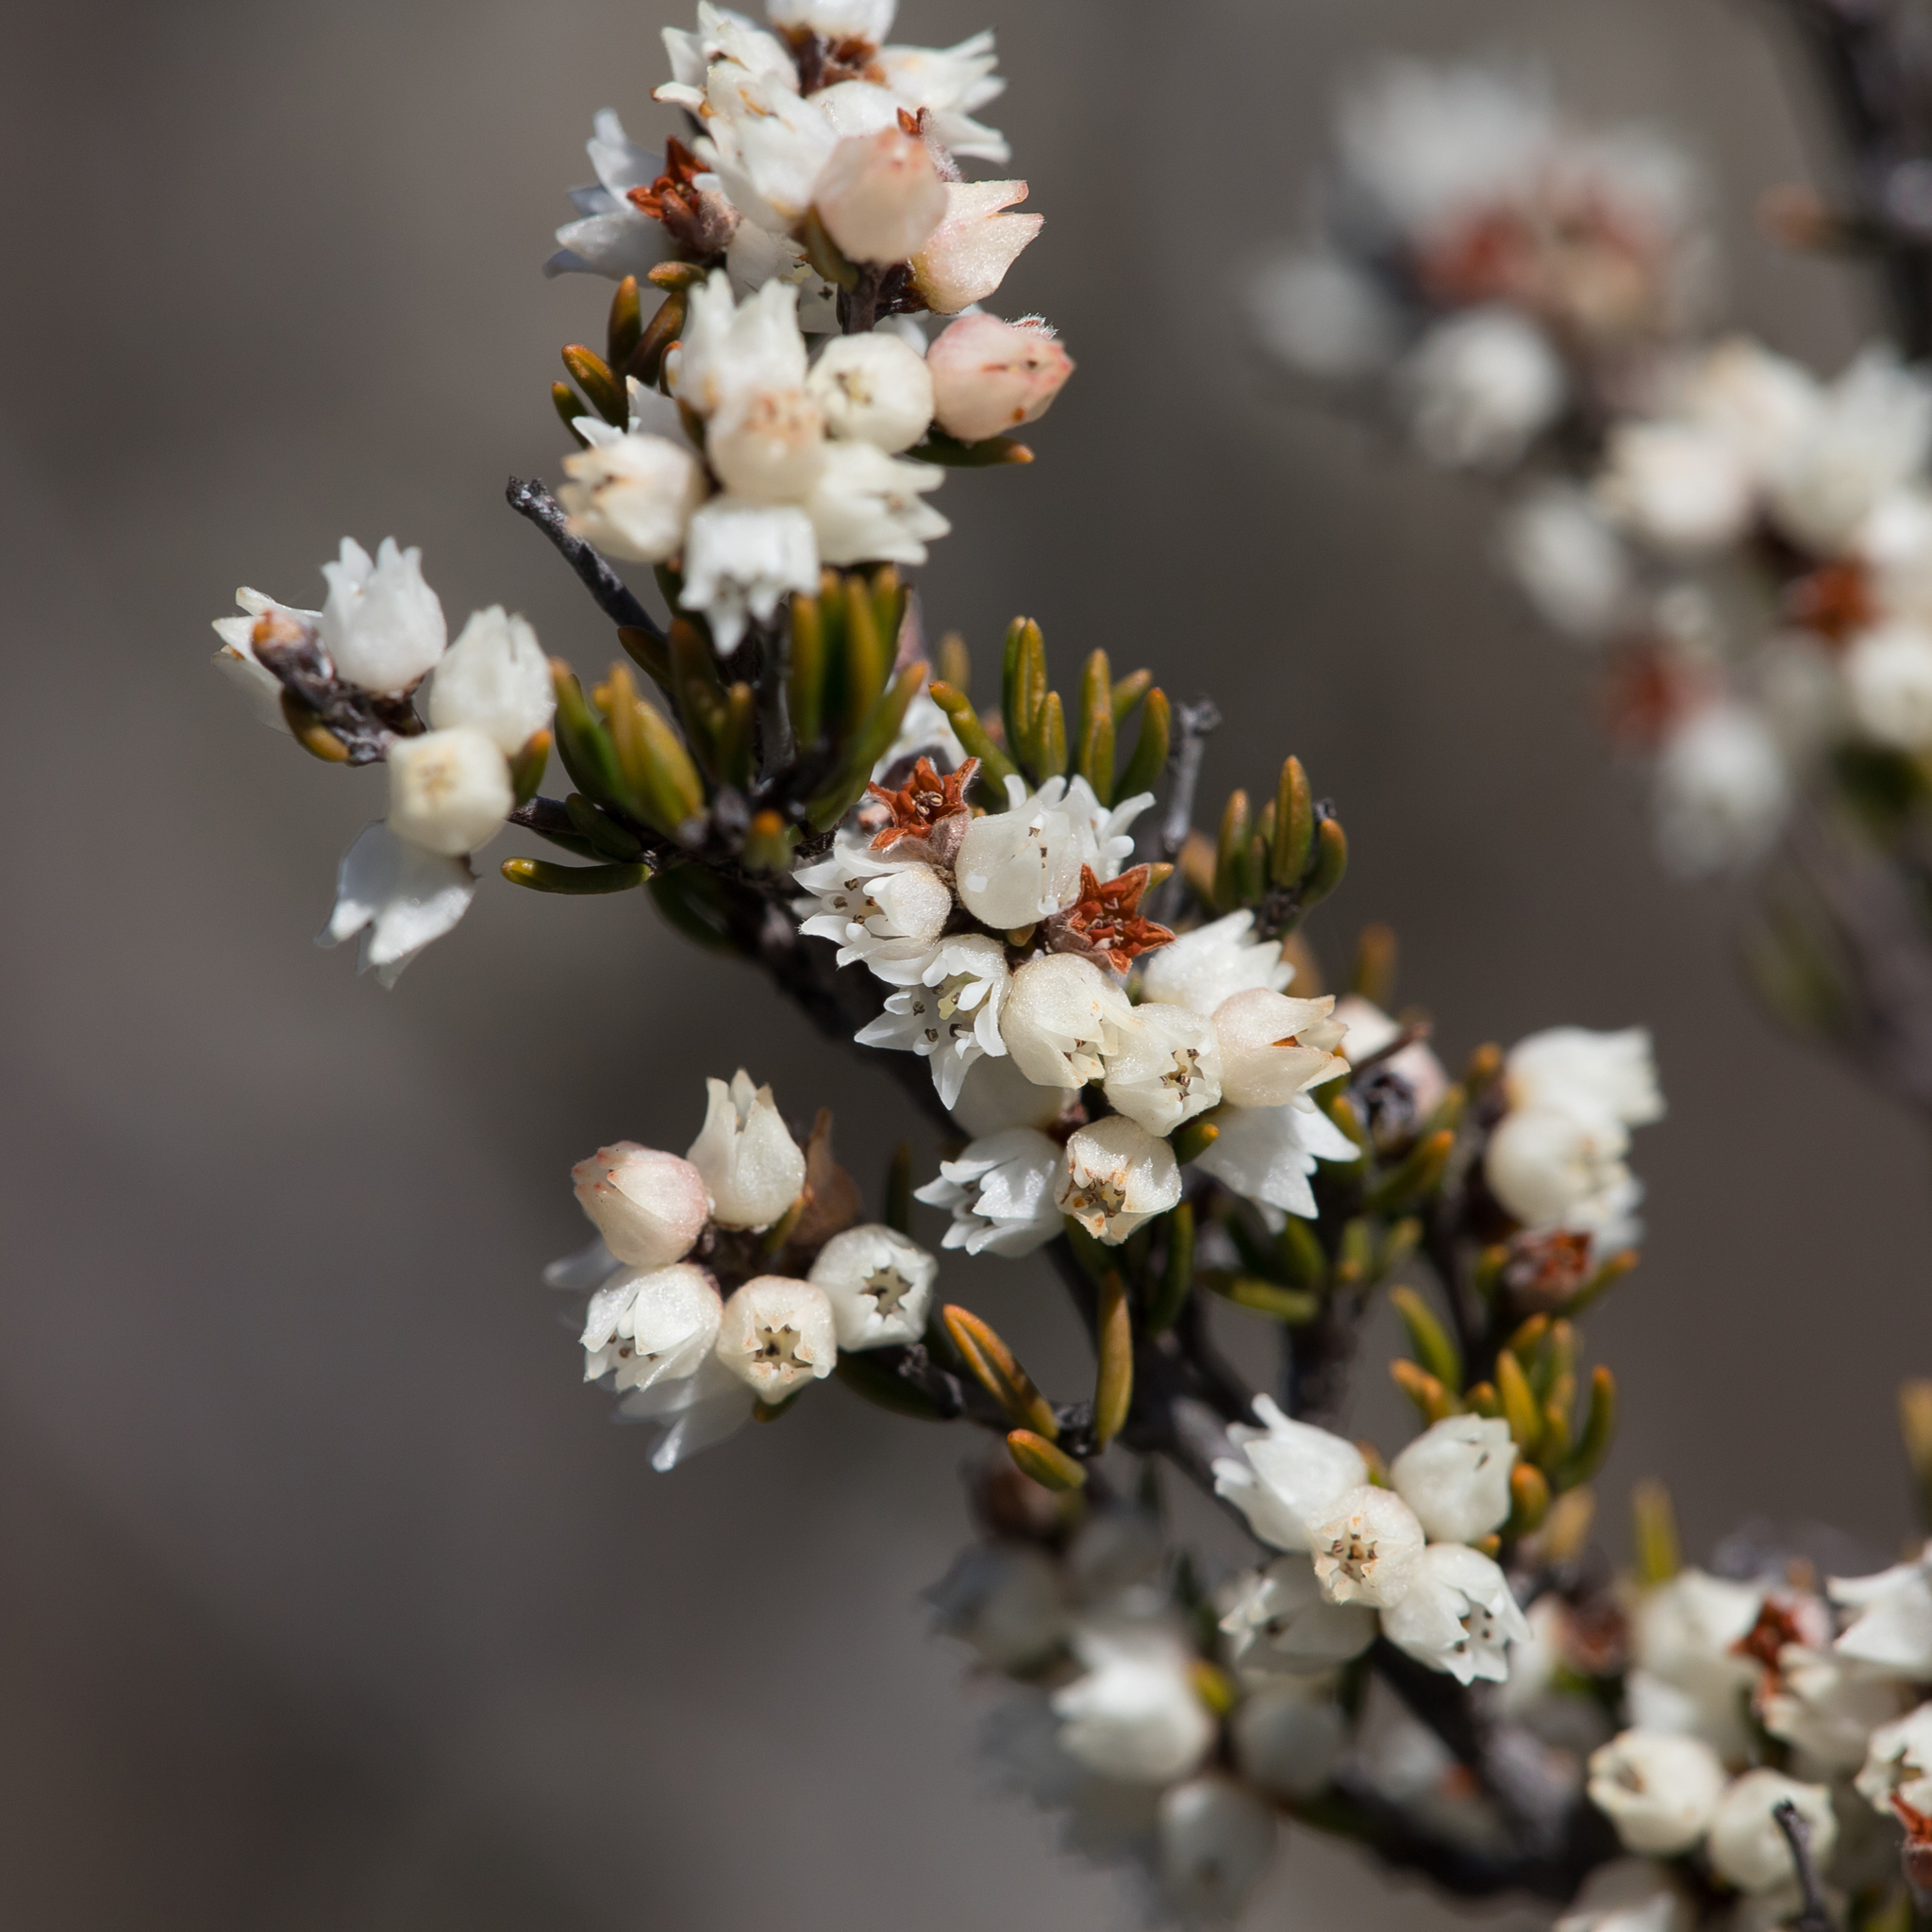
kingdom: Plantae
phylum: Tracheophyta
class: Magnoliopsida
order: Rosales
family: Rhamnaceae
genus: Cryptandra
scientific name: Cryptandra tomentosa
